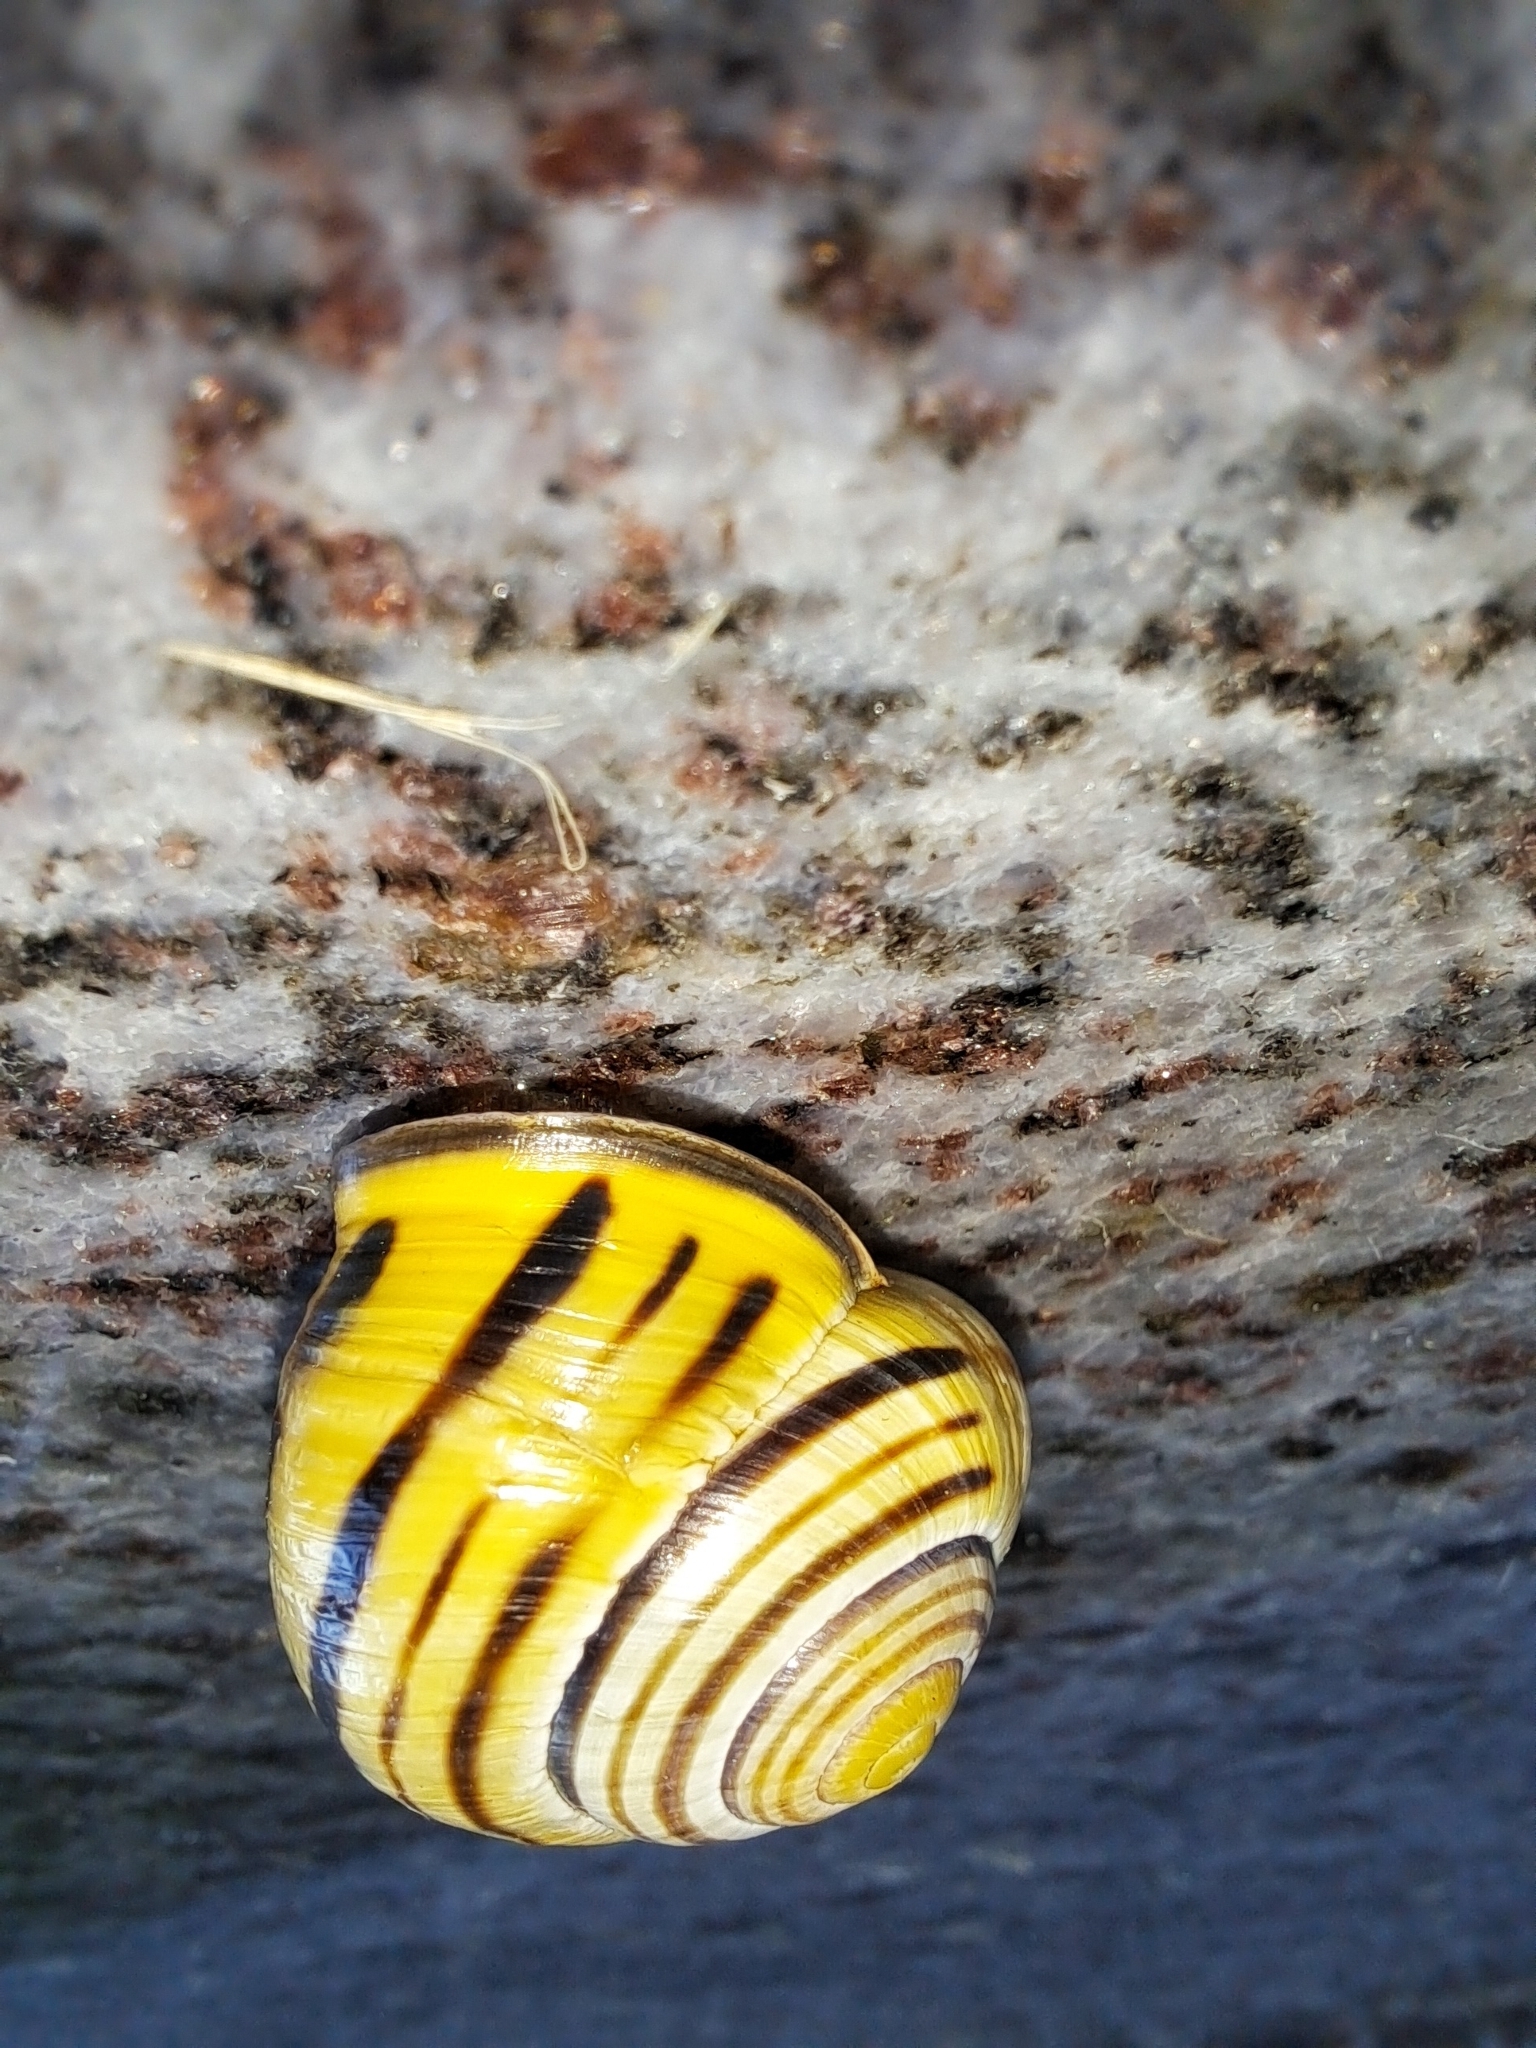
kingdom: Animalia
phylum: Mollusca
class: Gastropoda
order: Stylommatophora
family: Helicidae
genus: Cepaea
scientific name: Cepaea nemoralis
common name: Grovesnail
